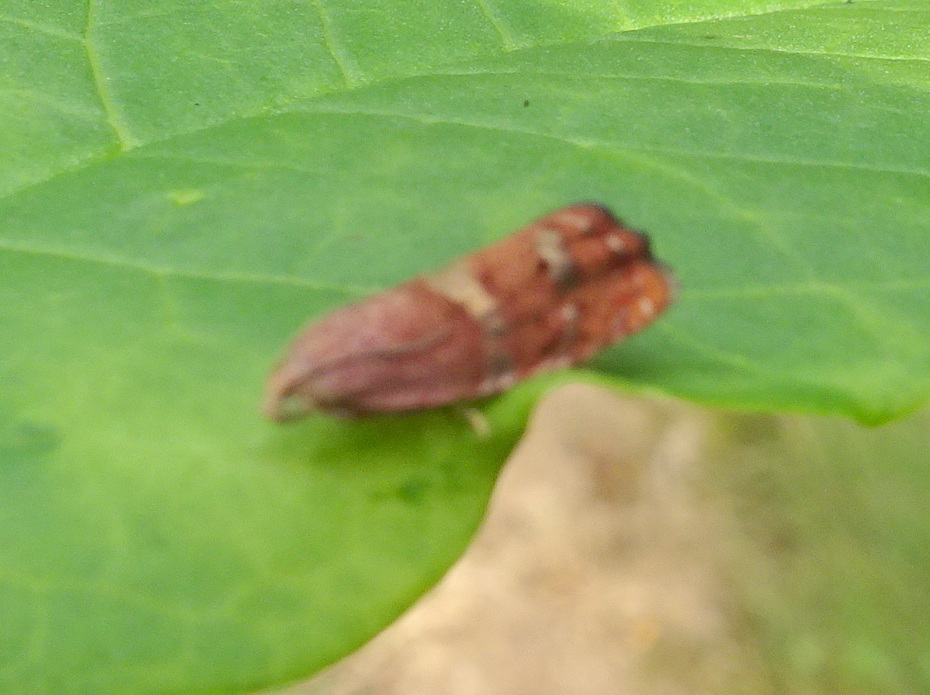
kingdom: Animalia
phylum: Arthropoda
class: Insecta
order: Lepidoptera
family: Tortricidae
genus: Cydia
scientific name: Cydia latiferreana
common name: Filbertworm moth
